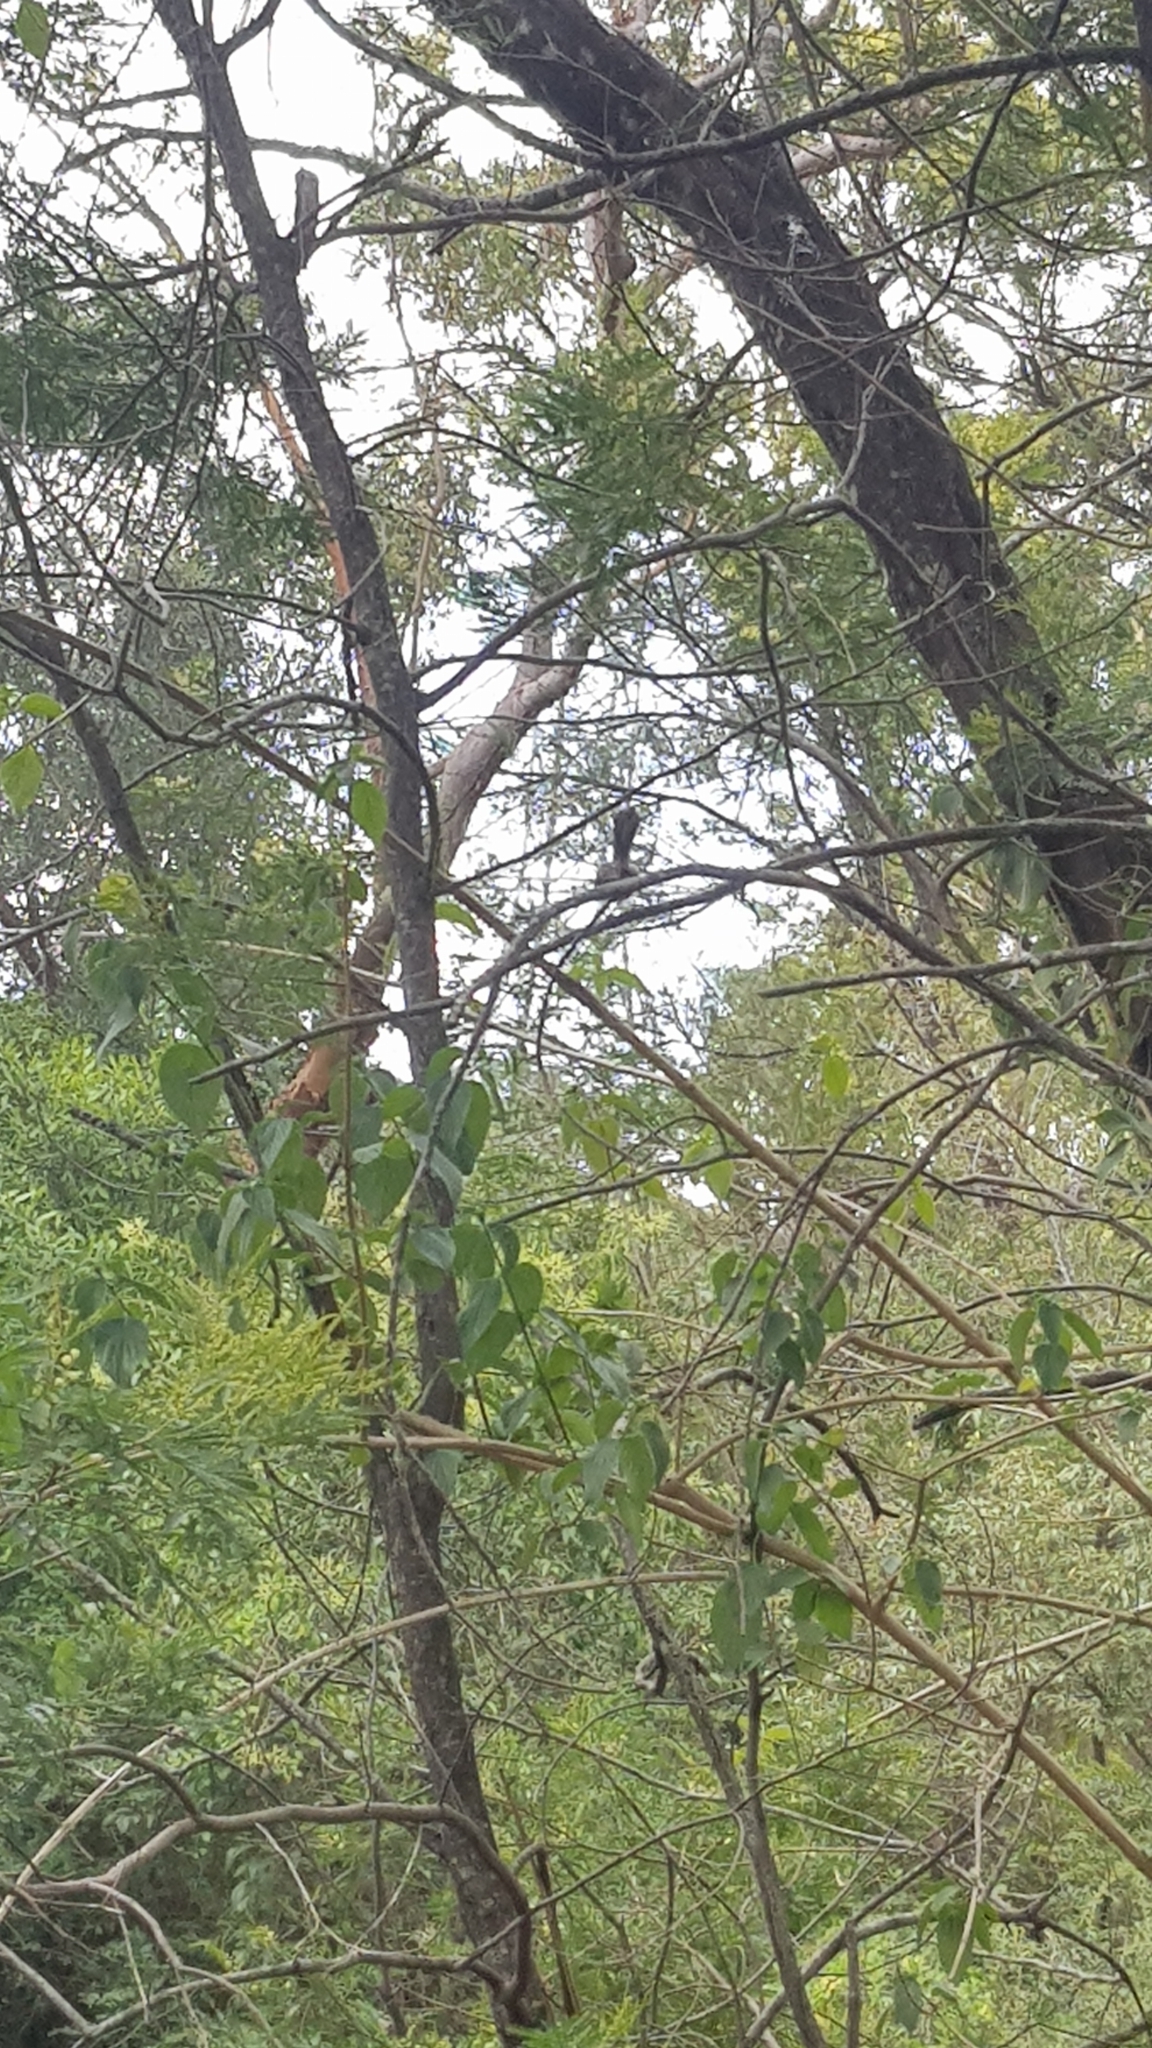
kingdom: Animalia
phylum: Chordata
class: Aves
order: Passeriformes
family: Rhipiduridae
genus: Rhipidura
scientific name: Rhipidura albiscapa
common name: Grey fantail
